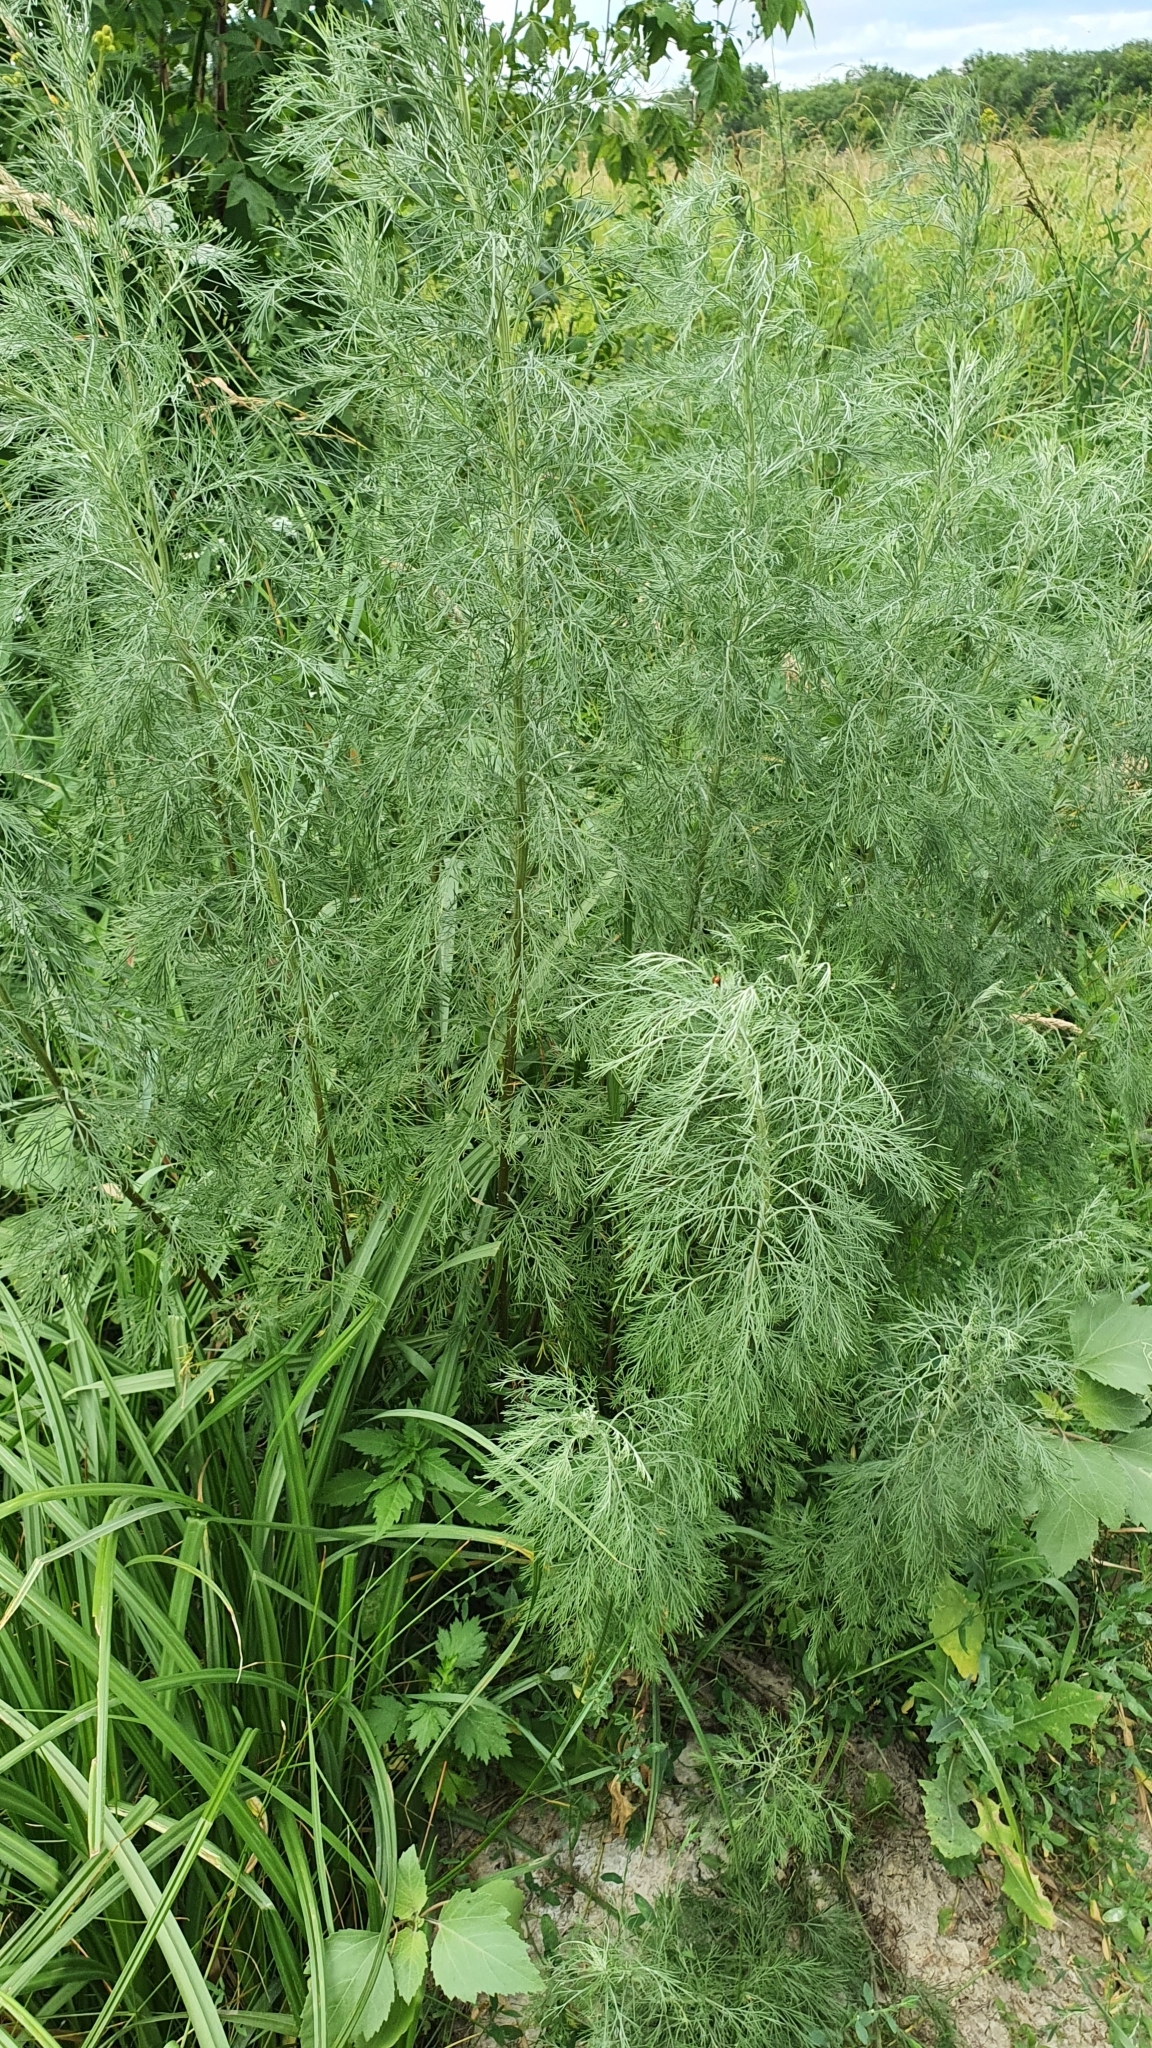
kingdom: Plantae
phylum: Tracheophyta
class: Magnoliopsida
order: Asterales
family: Asteraceae
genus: Artemisia
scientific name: Artemisia abrotanum
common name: Southernwood
